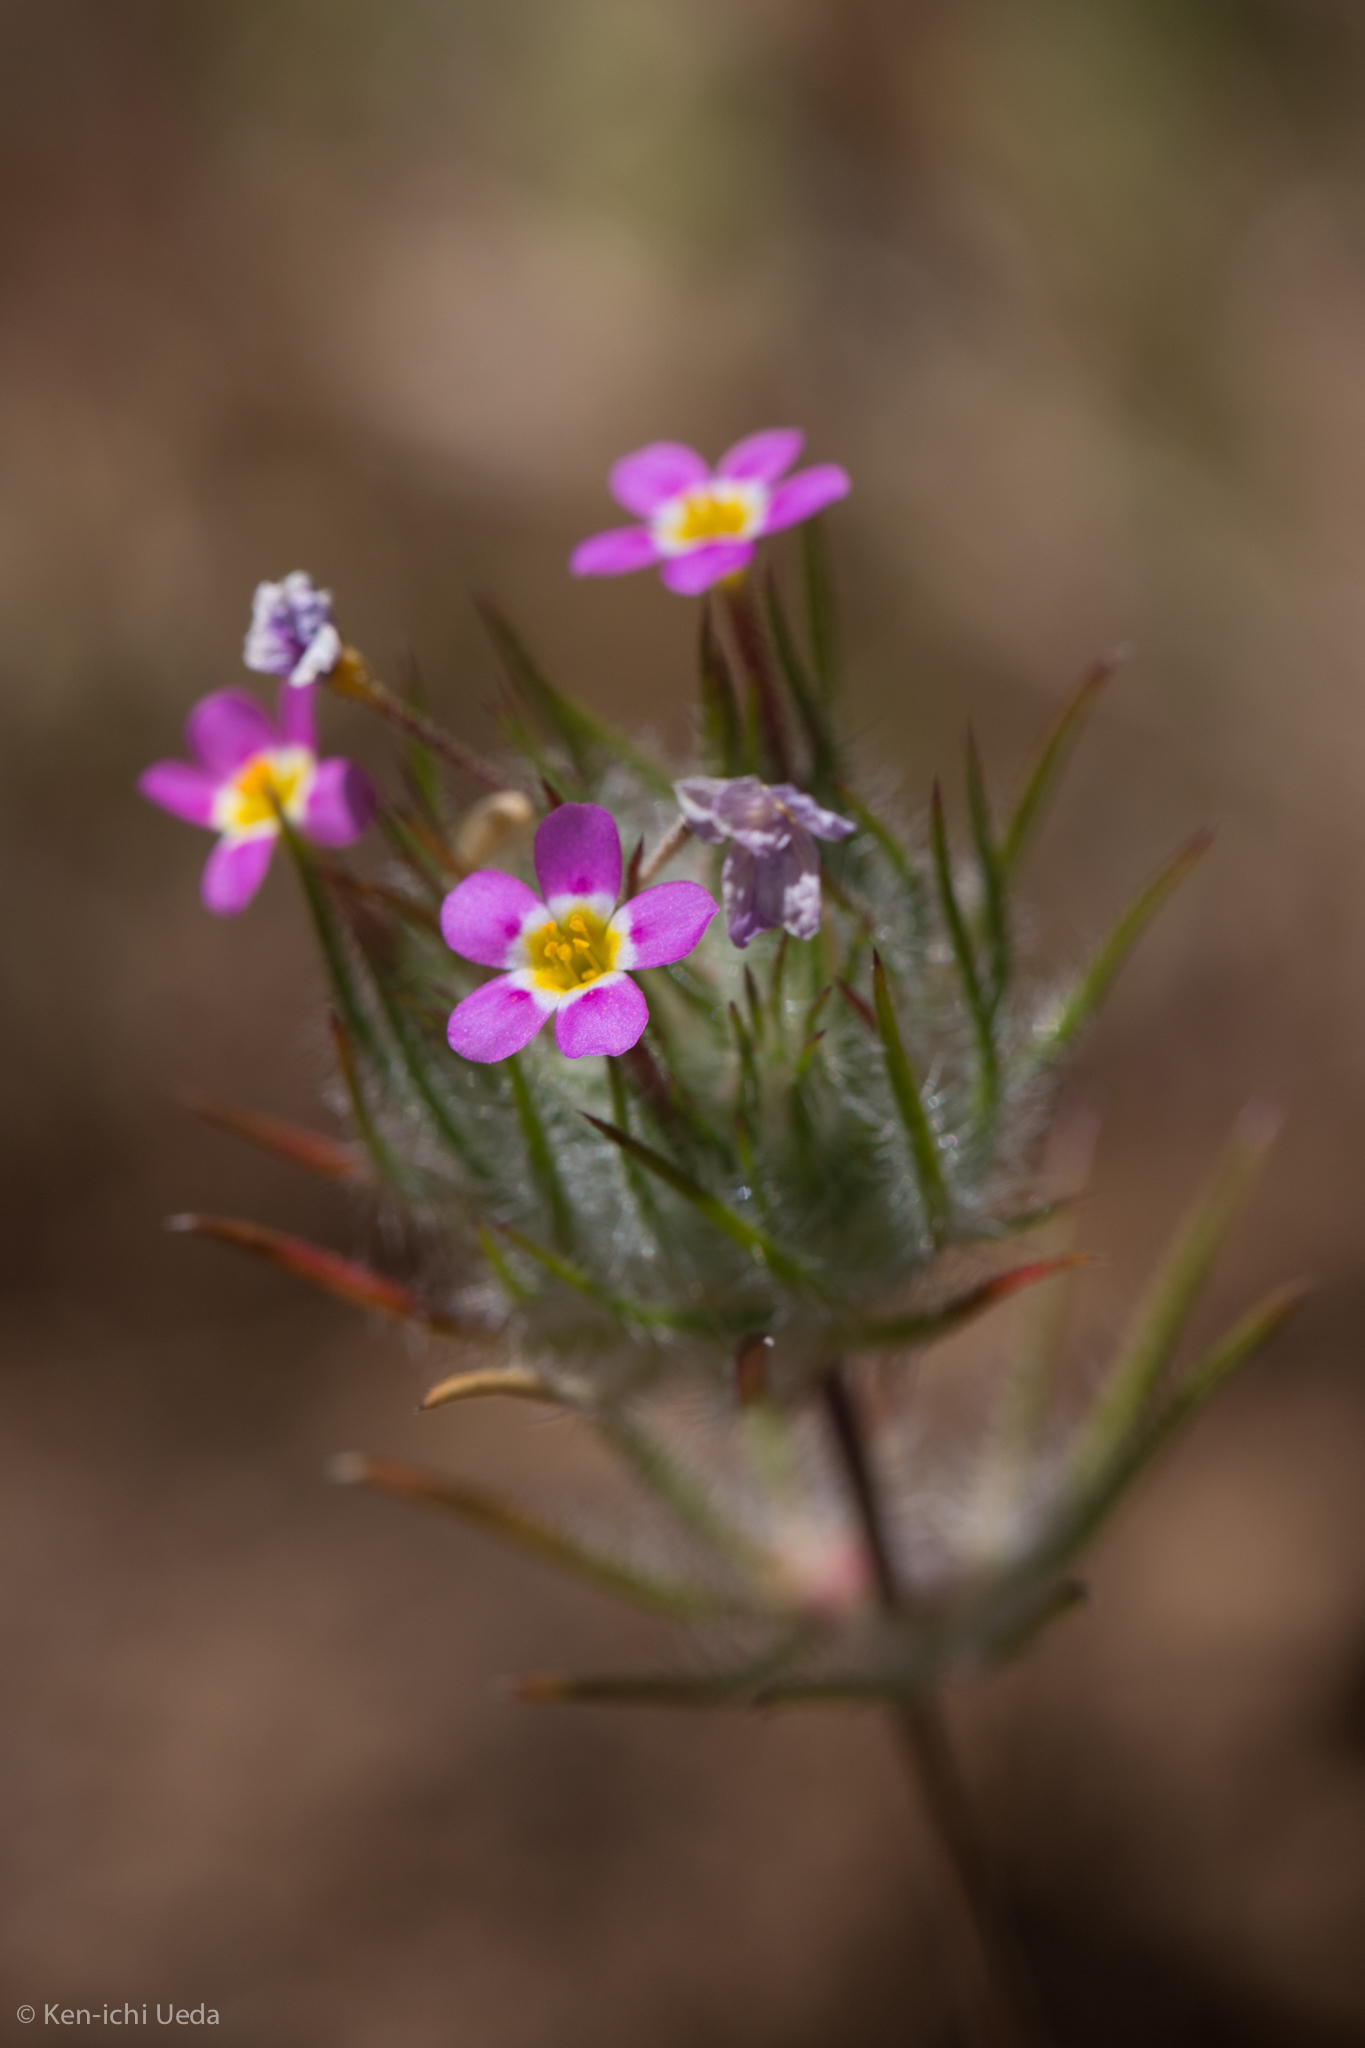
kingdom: Plantae
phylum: Tracheophyta
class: Magnoliopsida
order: Ericales
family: Polemoniaceae
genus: Leptosiphon
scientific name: Leptosiphon ciliatus
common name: Whiskerbrush
